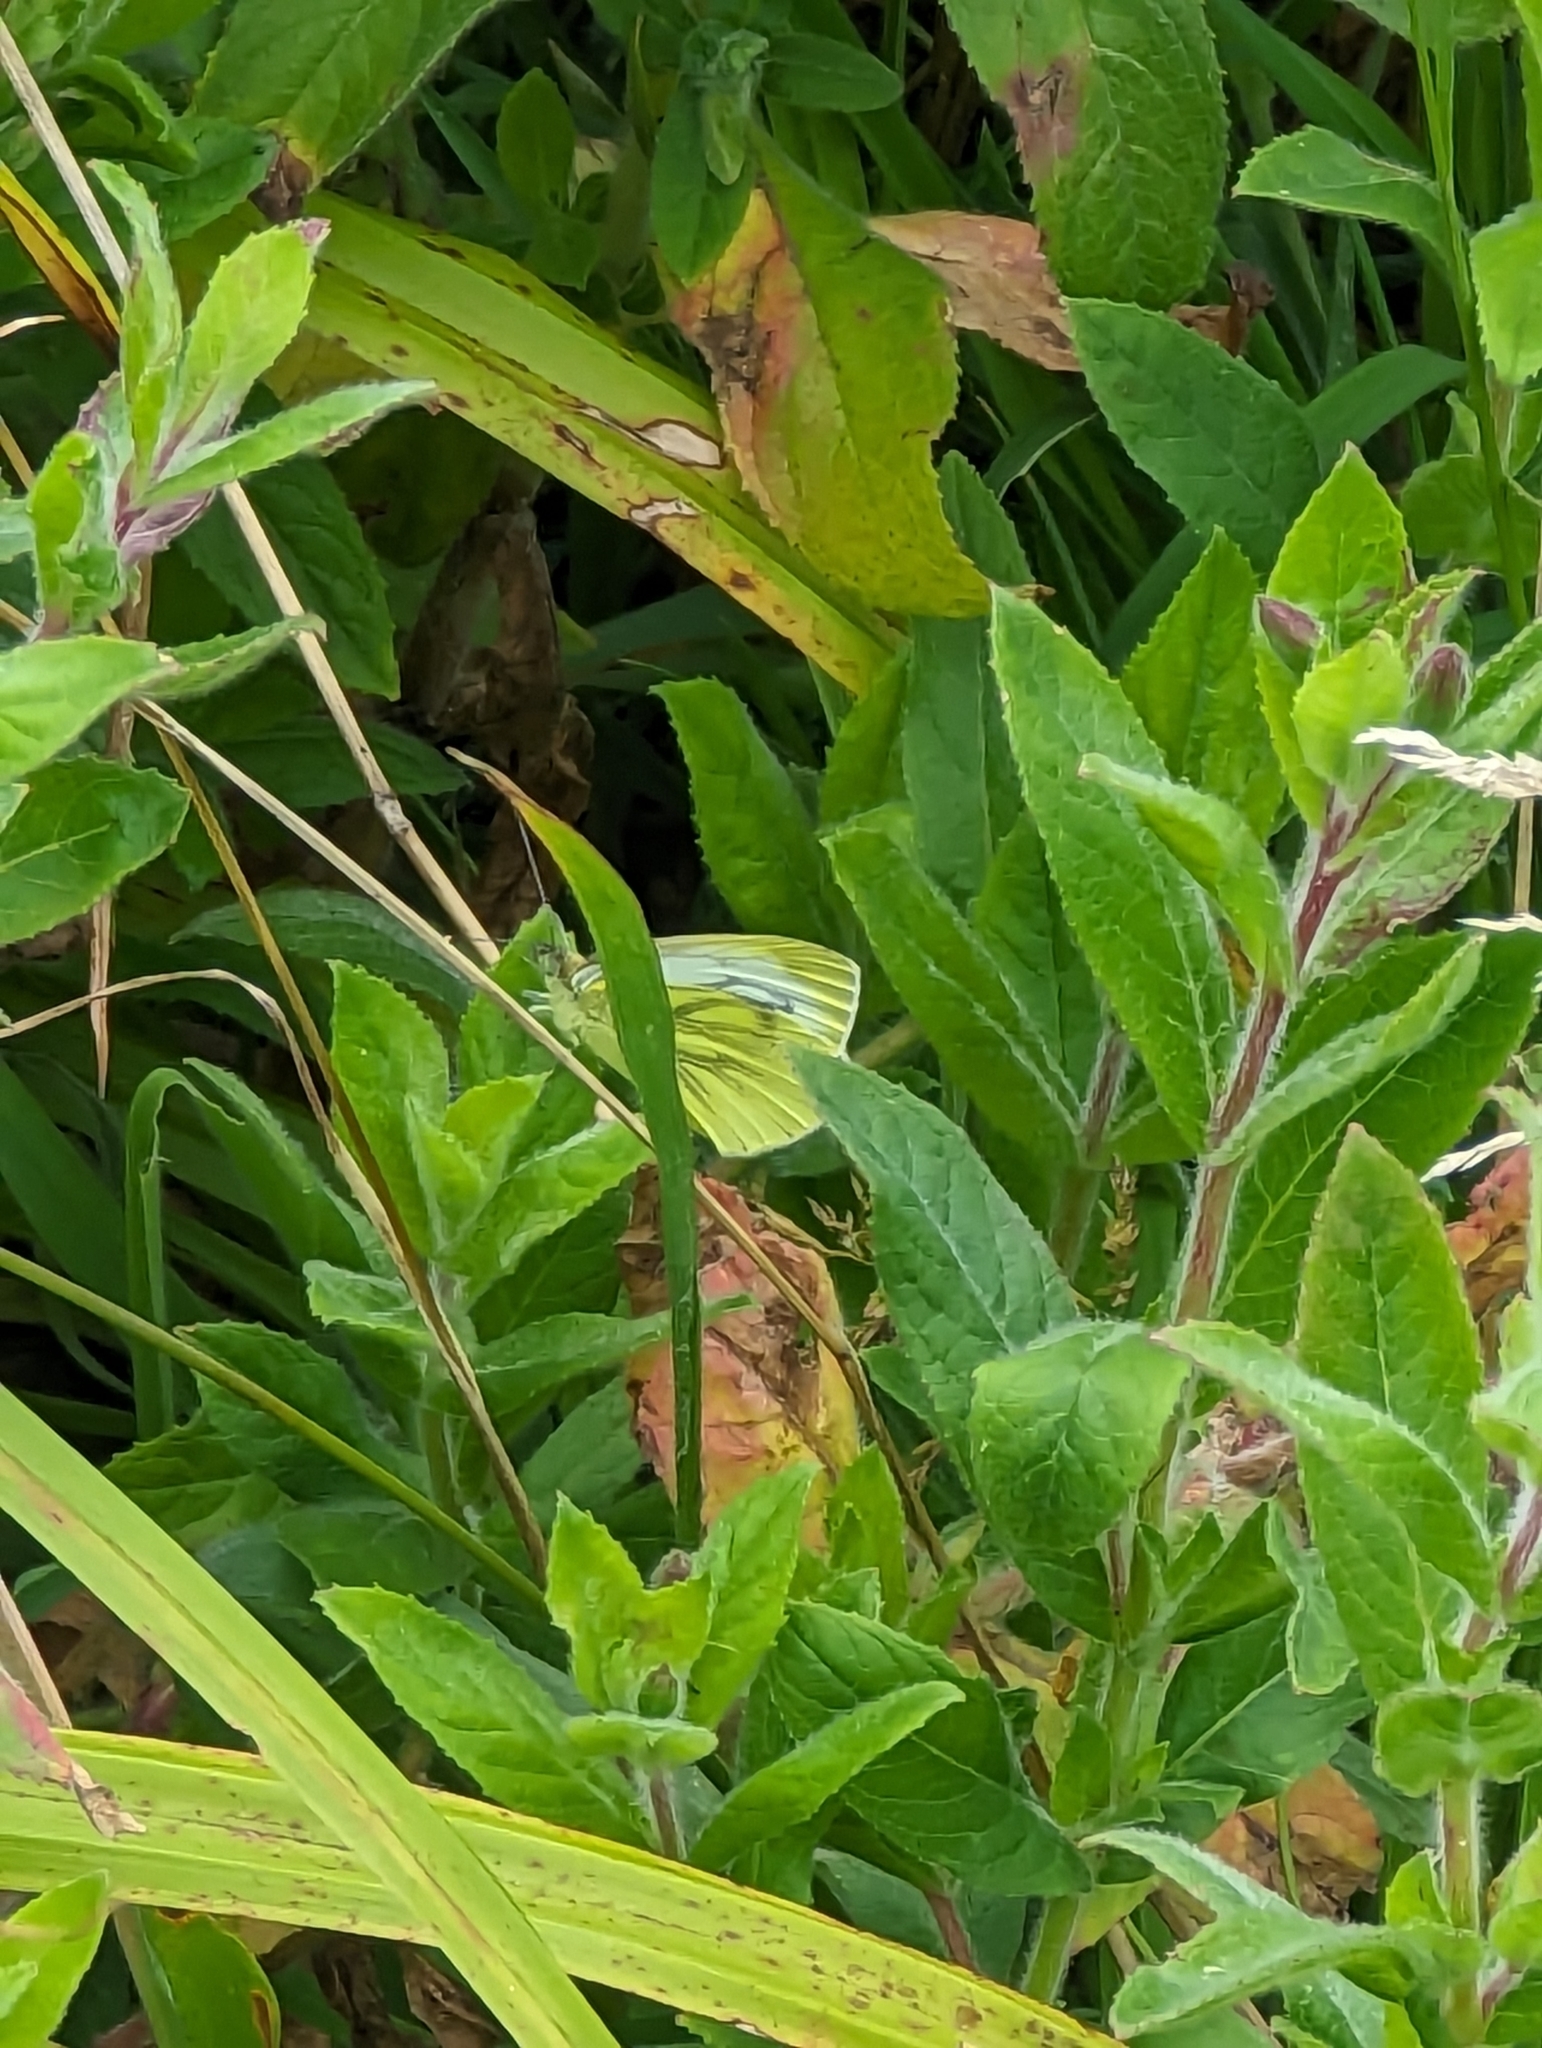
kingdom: Animalia
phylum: Arthropoda
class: Insecta
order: Lepidoptera
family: Pieridae
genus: Pieris
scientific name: Pieris napi
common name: Green-veined white
